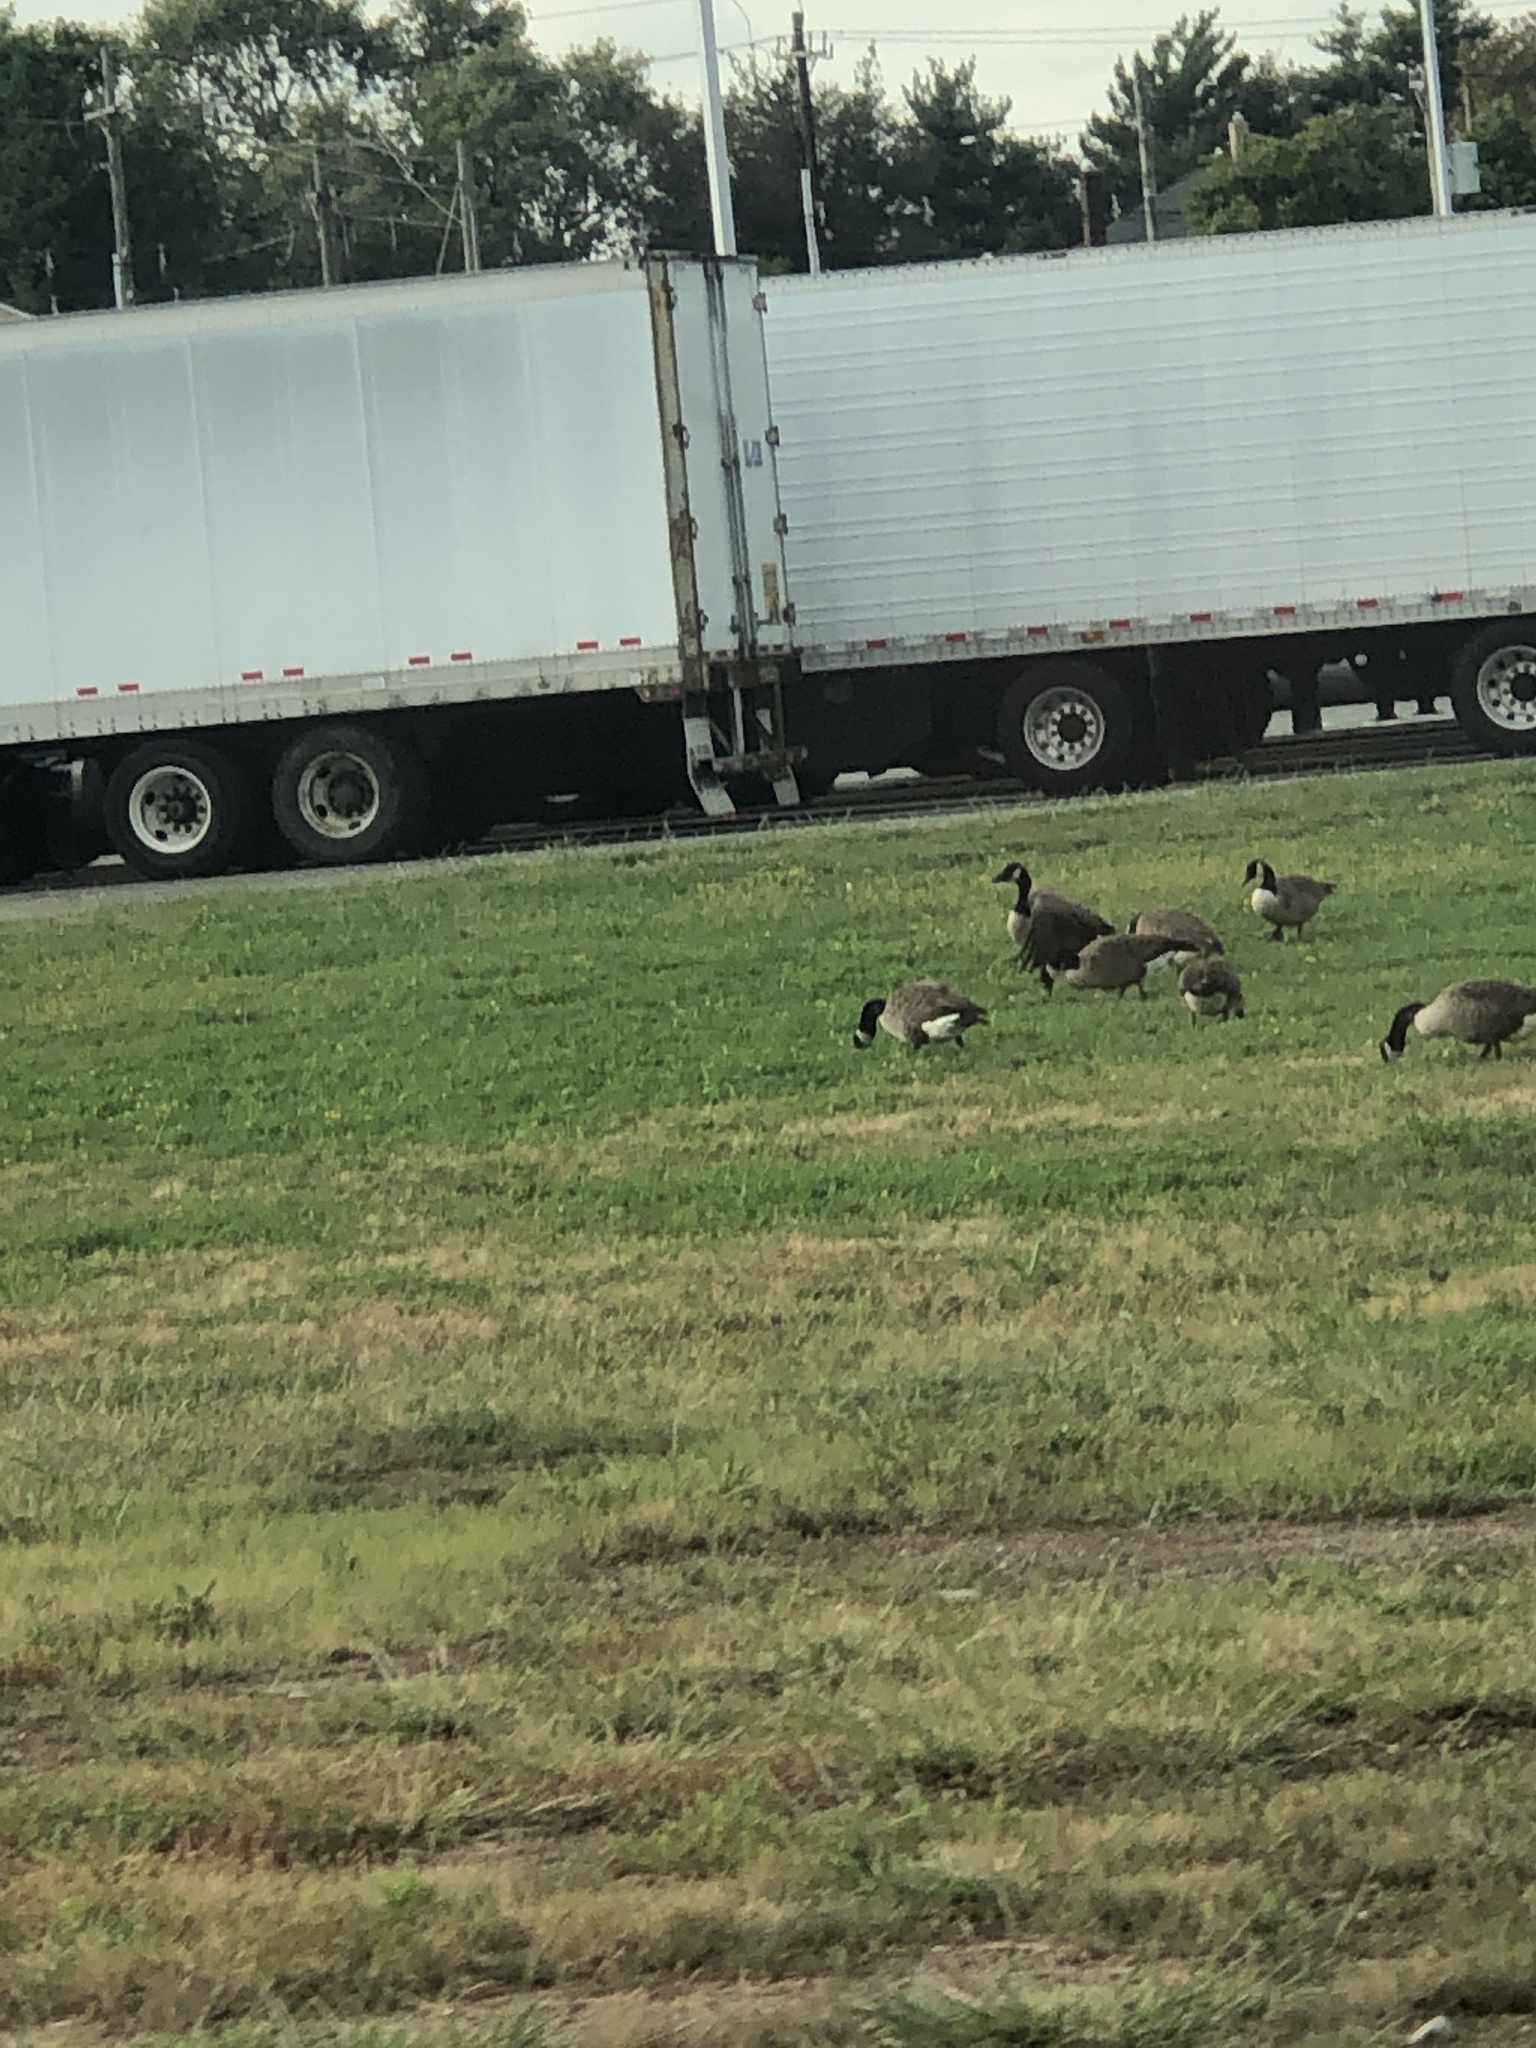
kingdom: Animalia
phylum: Chordata
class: Aves
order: Anseriformes
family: Anatidae
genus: Branta
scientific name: Branta canadensis
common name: Canada goose
